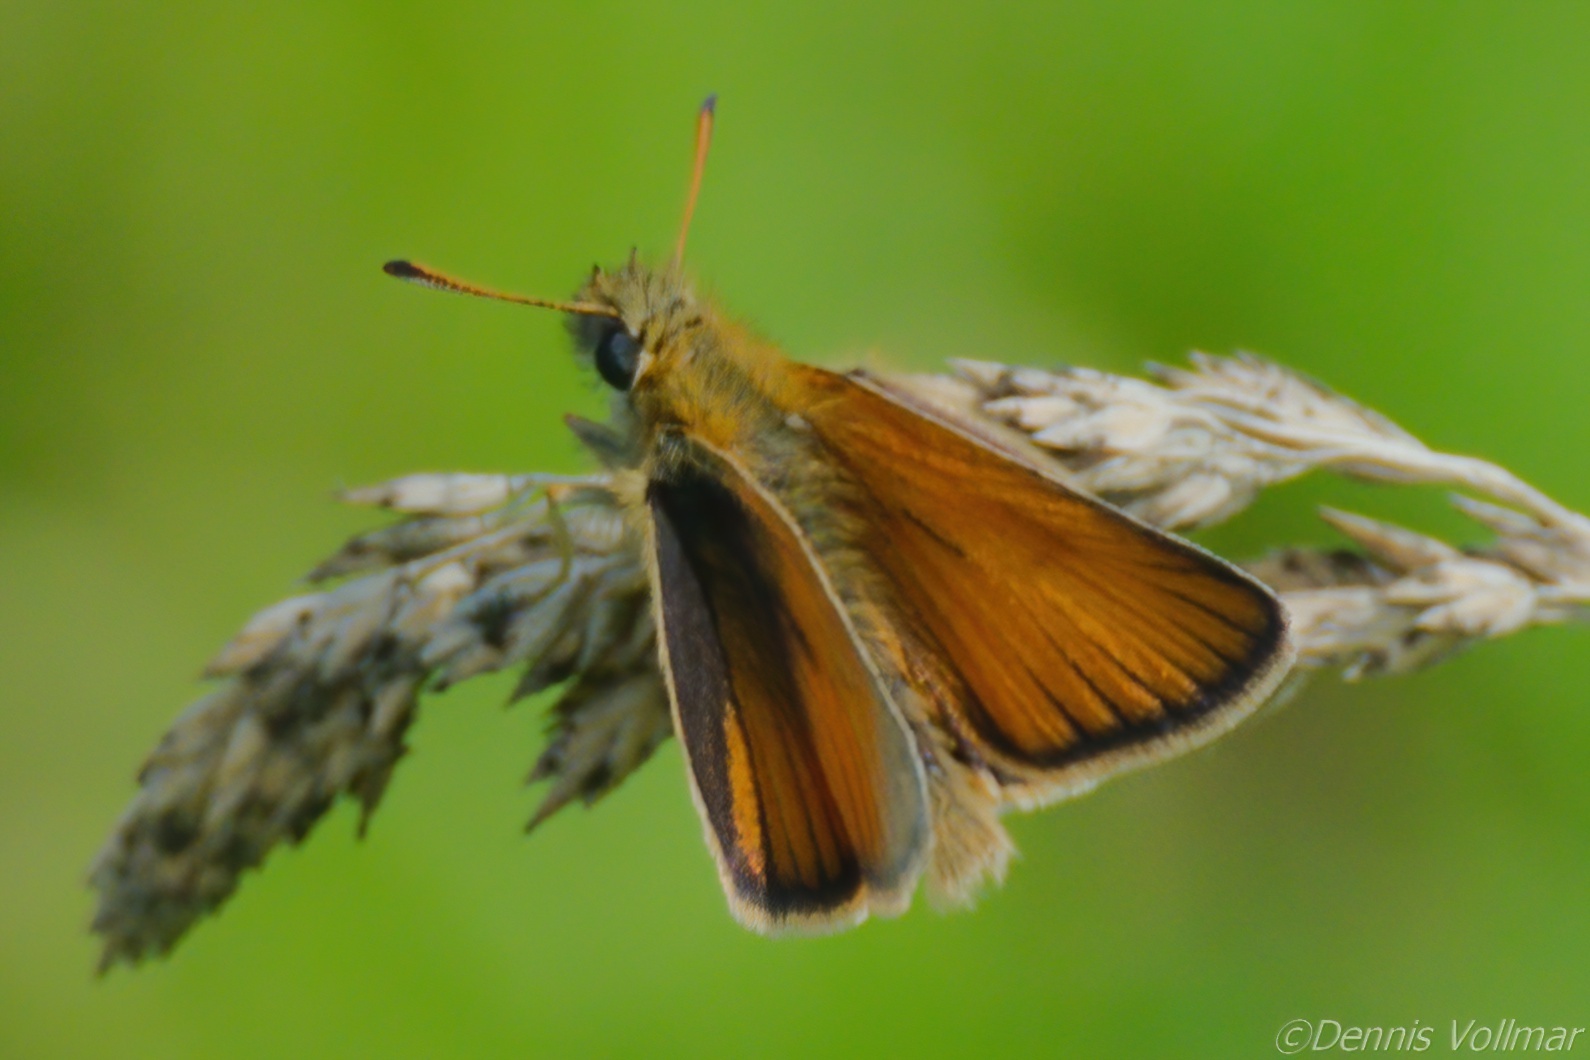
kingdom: Animalia
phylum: Arthropoda
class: Insecta
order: Lepidoptera
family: Hesperiidae
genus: Thymelicus
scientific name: Thymelicus lineola
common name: Essex skipper
